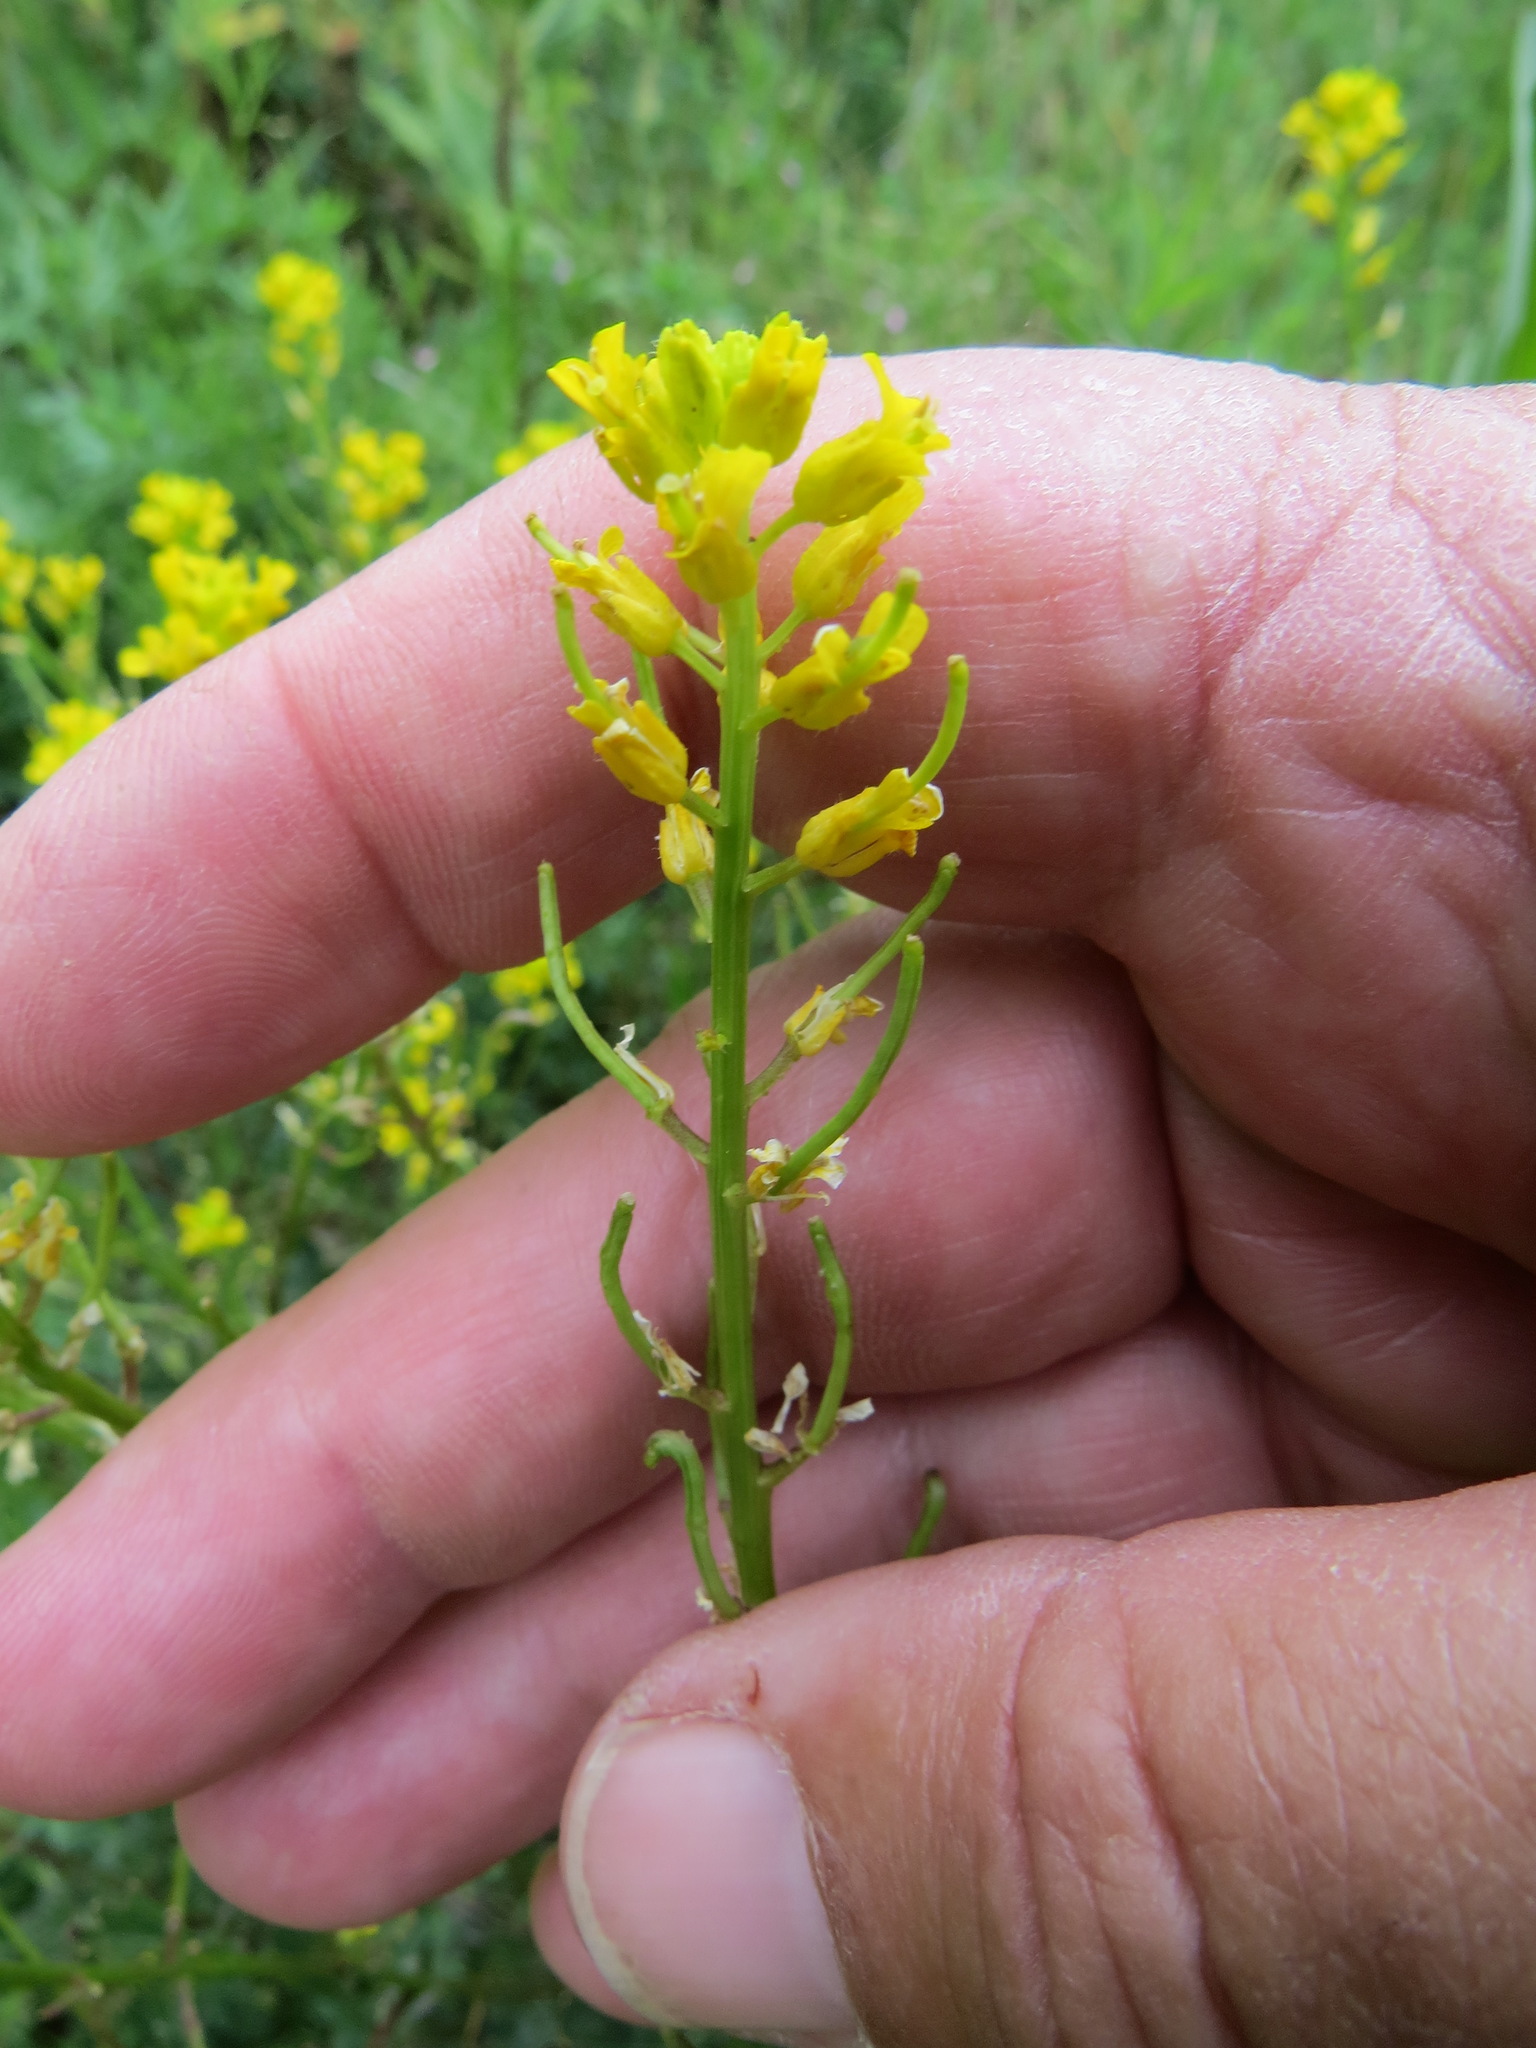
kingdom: Plantae
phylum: Tracheophyta
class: Magnoliopsida
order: Brassicales
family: Brassicaceae
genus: Barbarea
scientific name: Barbarea orthoceras
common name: American wintercress
